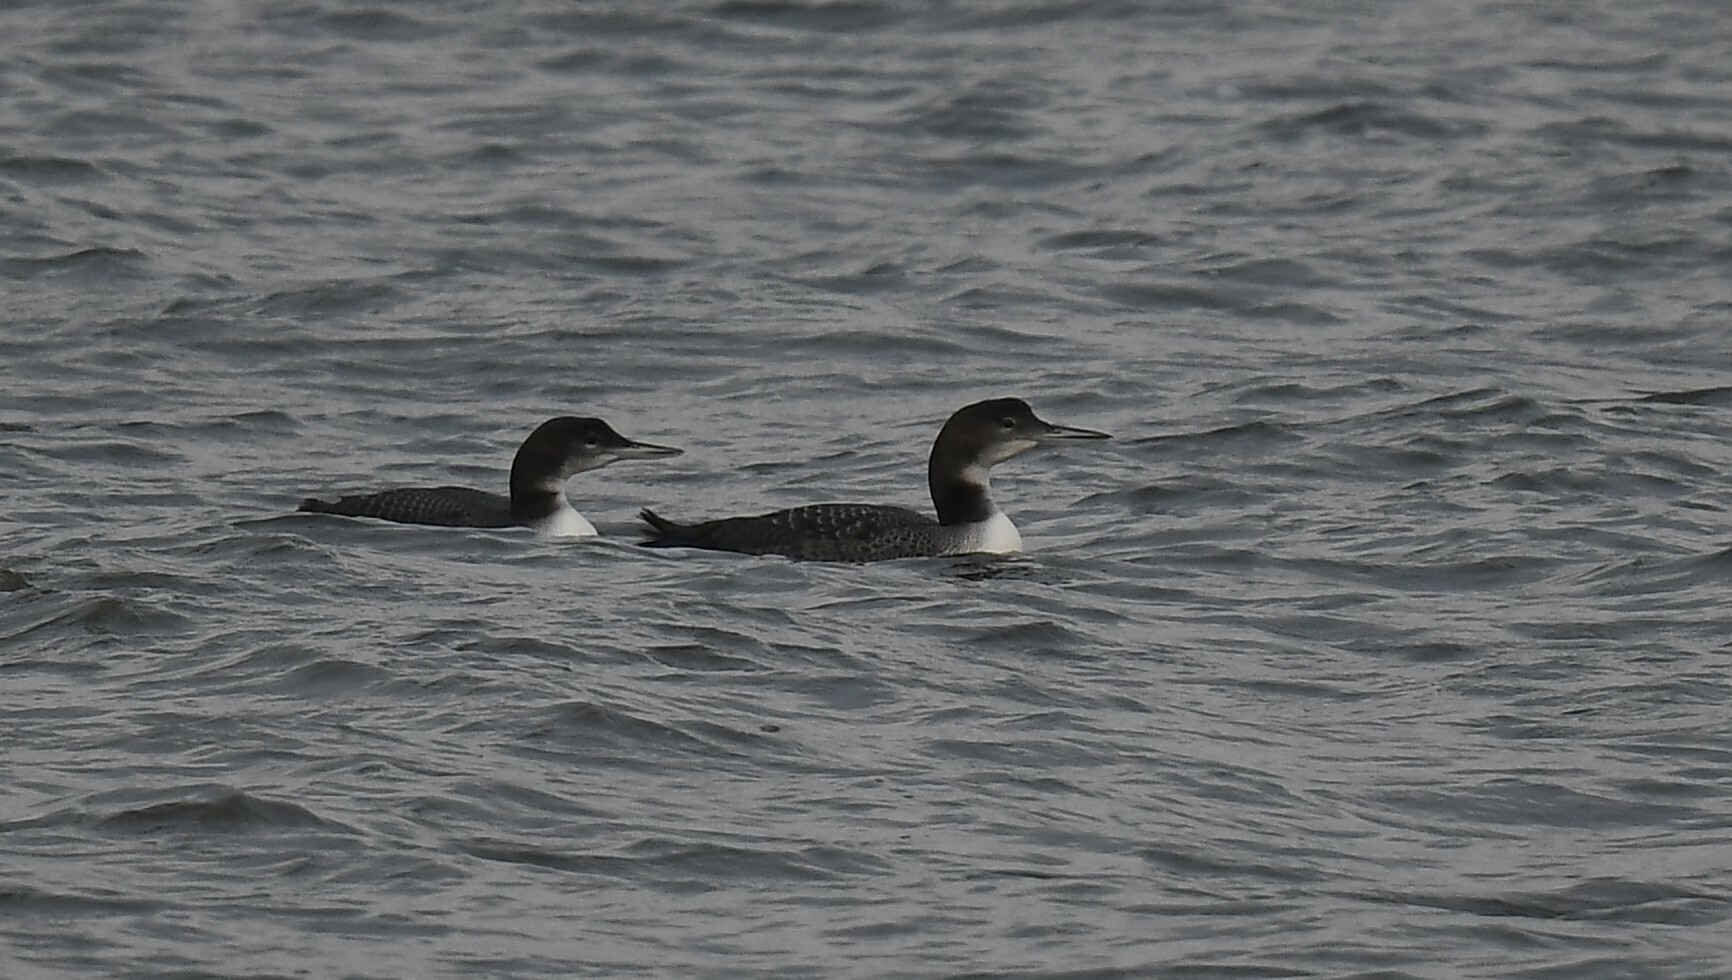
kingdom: Animalia
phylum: Chordata
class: Aves
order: Gaviiformes
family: Gaviidae
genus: Gavia
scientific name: Gavia immer
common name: Common loon
